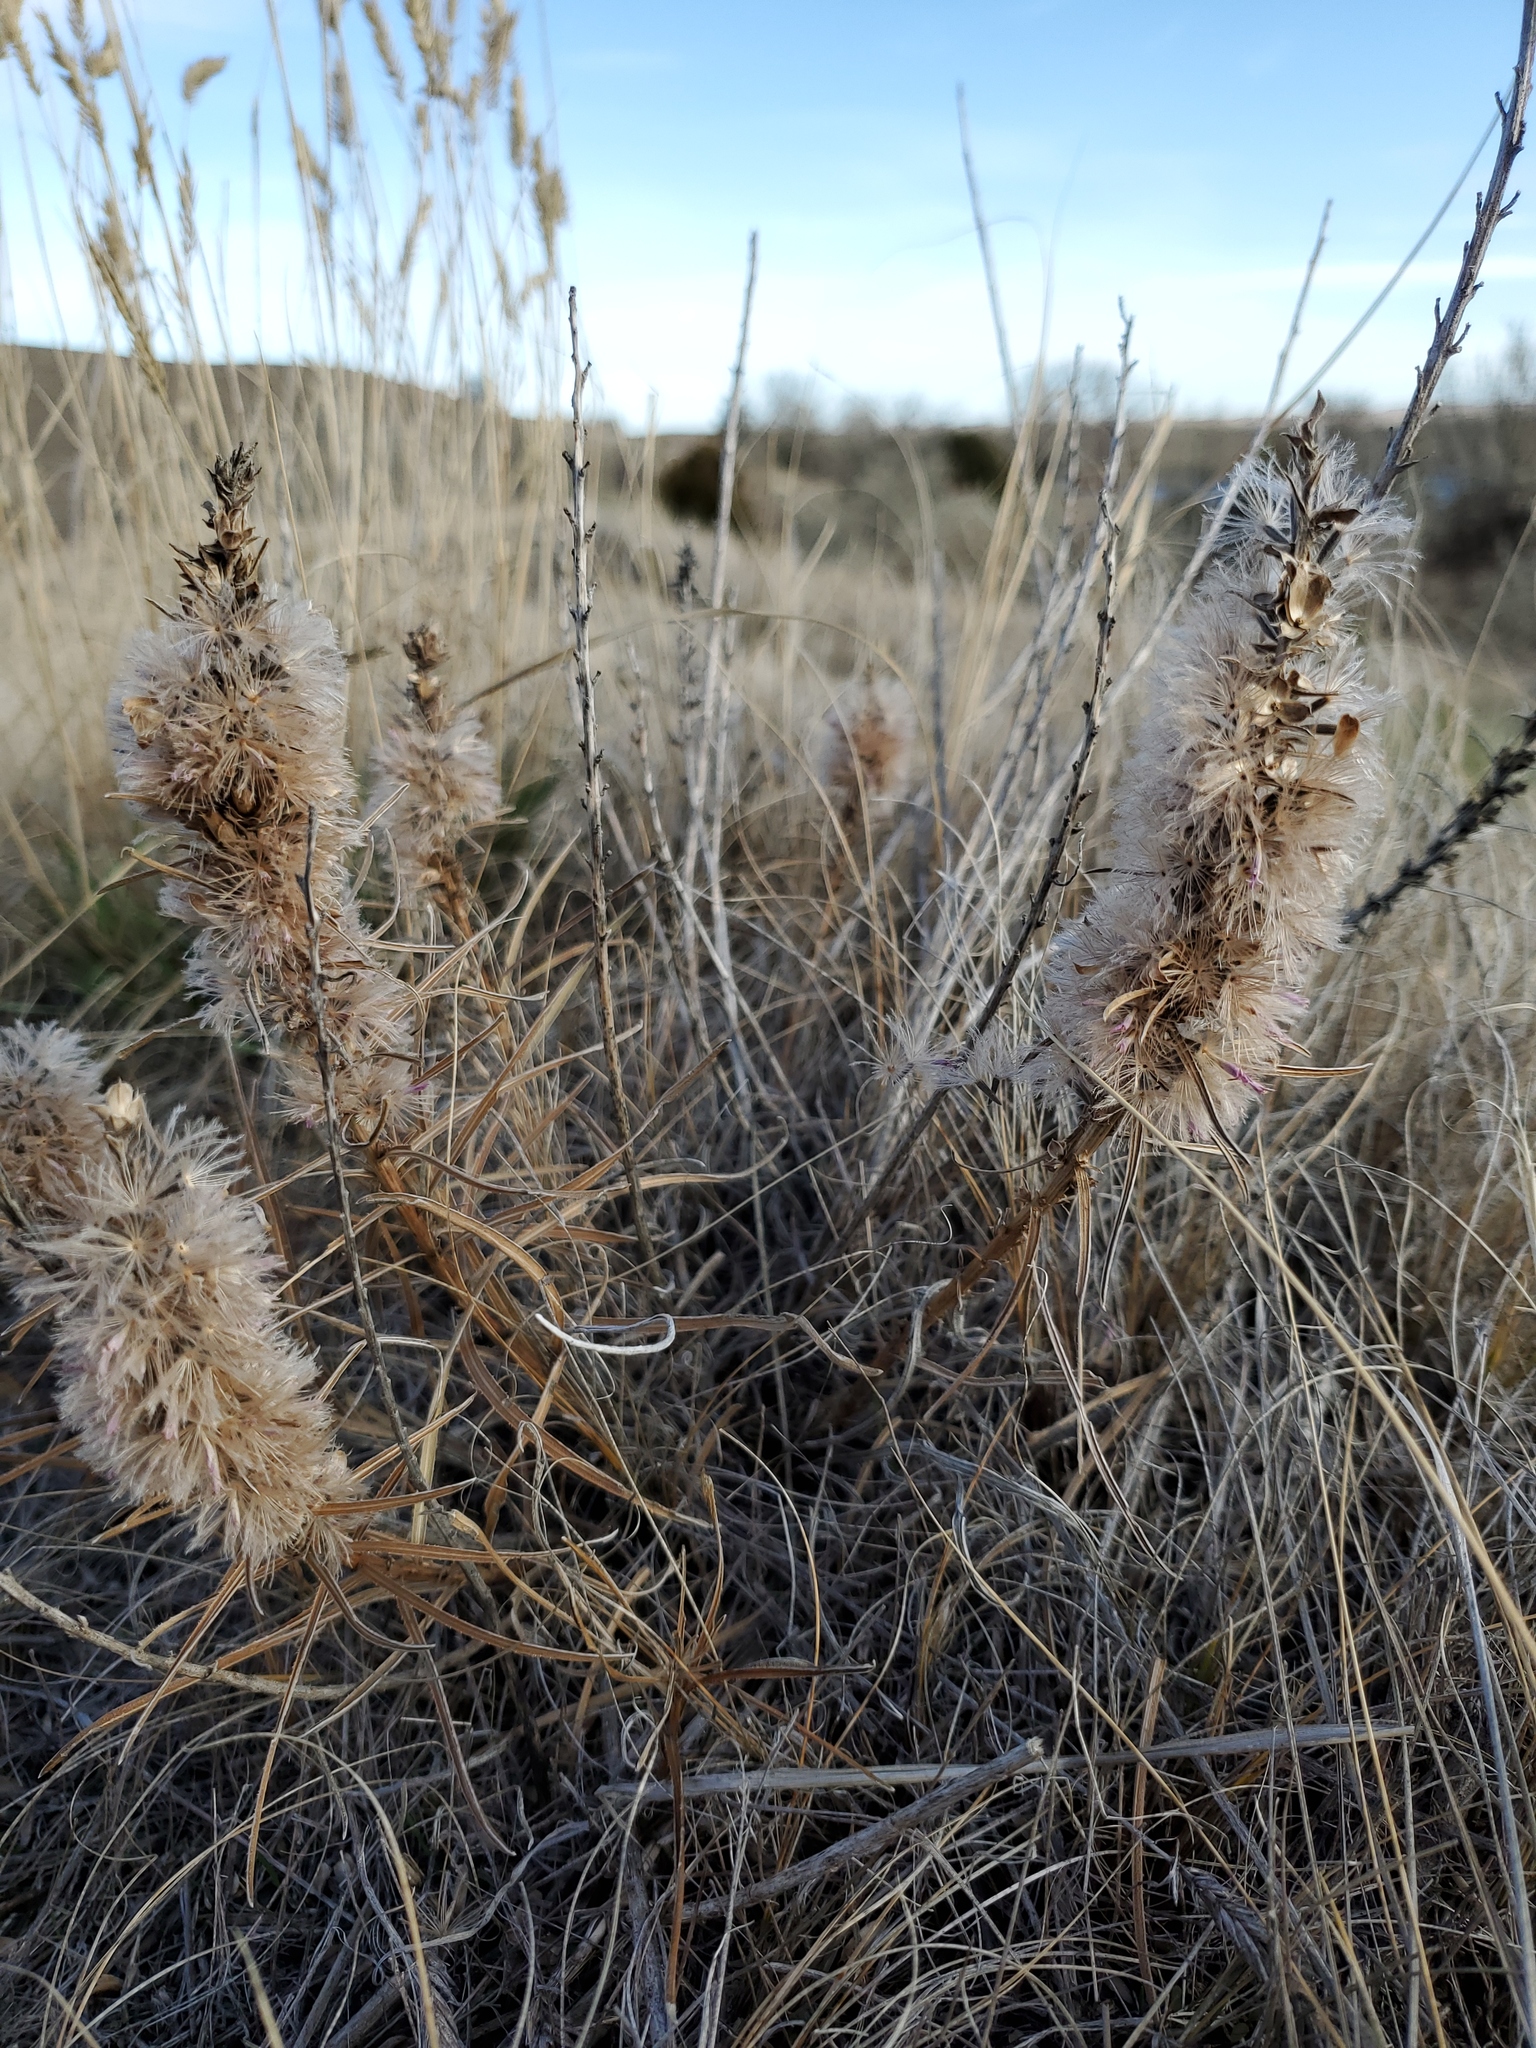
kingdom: Plantae
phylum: Tracheophyta
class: Magnoliopsida
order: Asterales
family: Asteraceae
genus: Liatris
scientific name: Liatris punctata
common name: Dotted gayfeather
